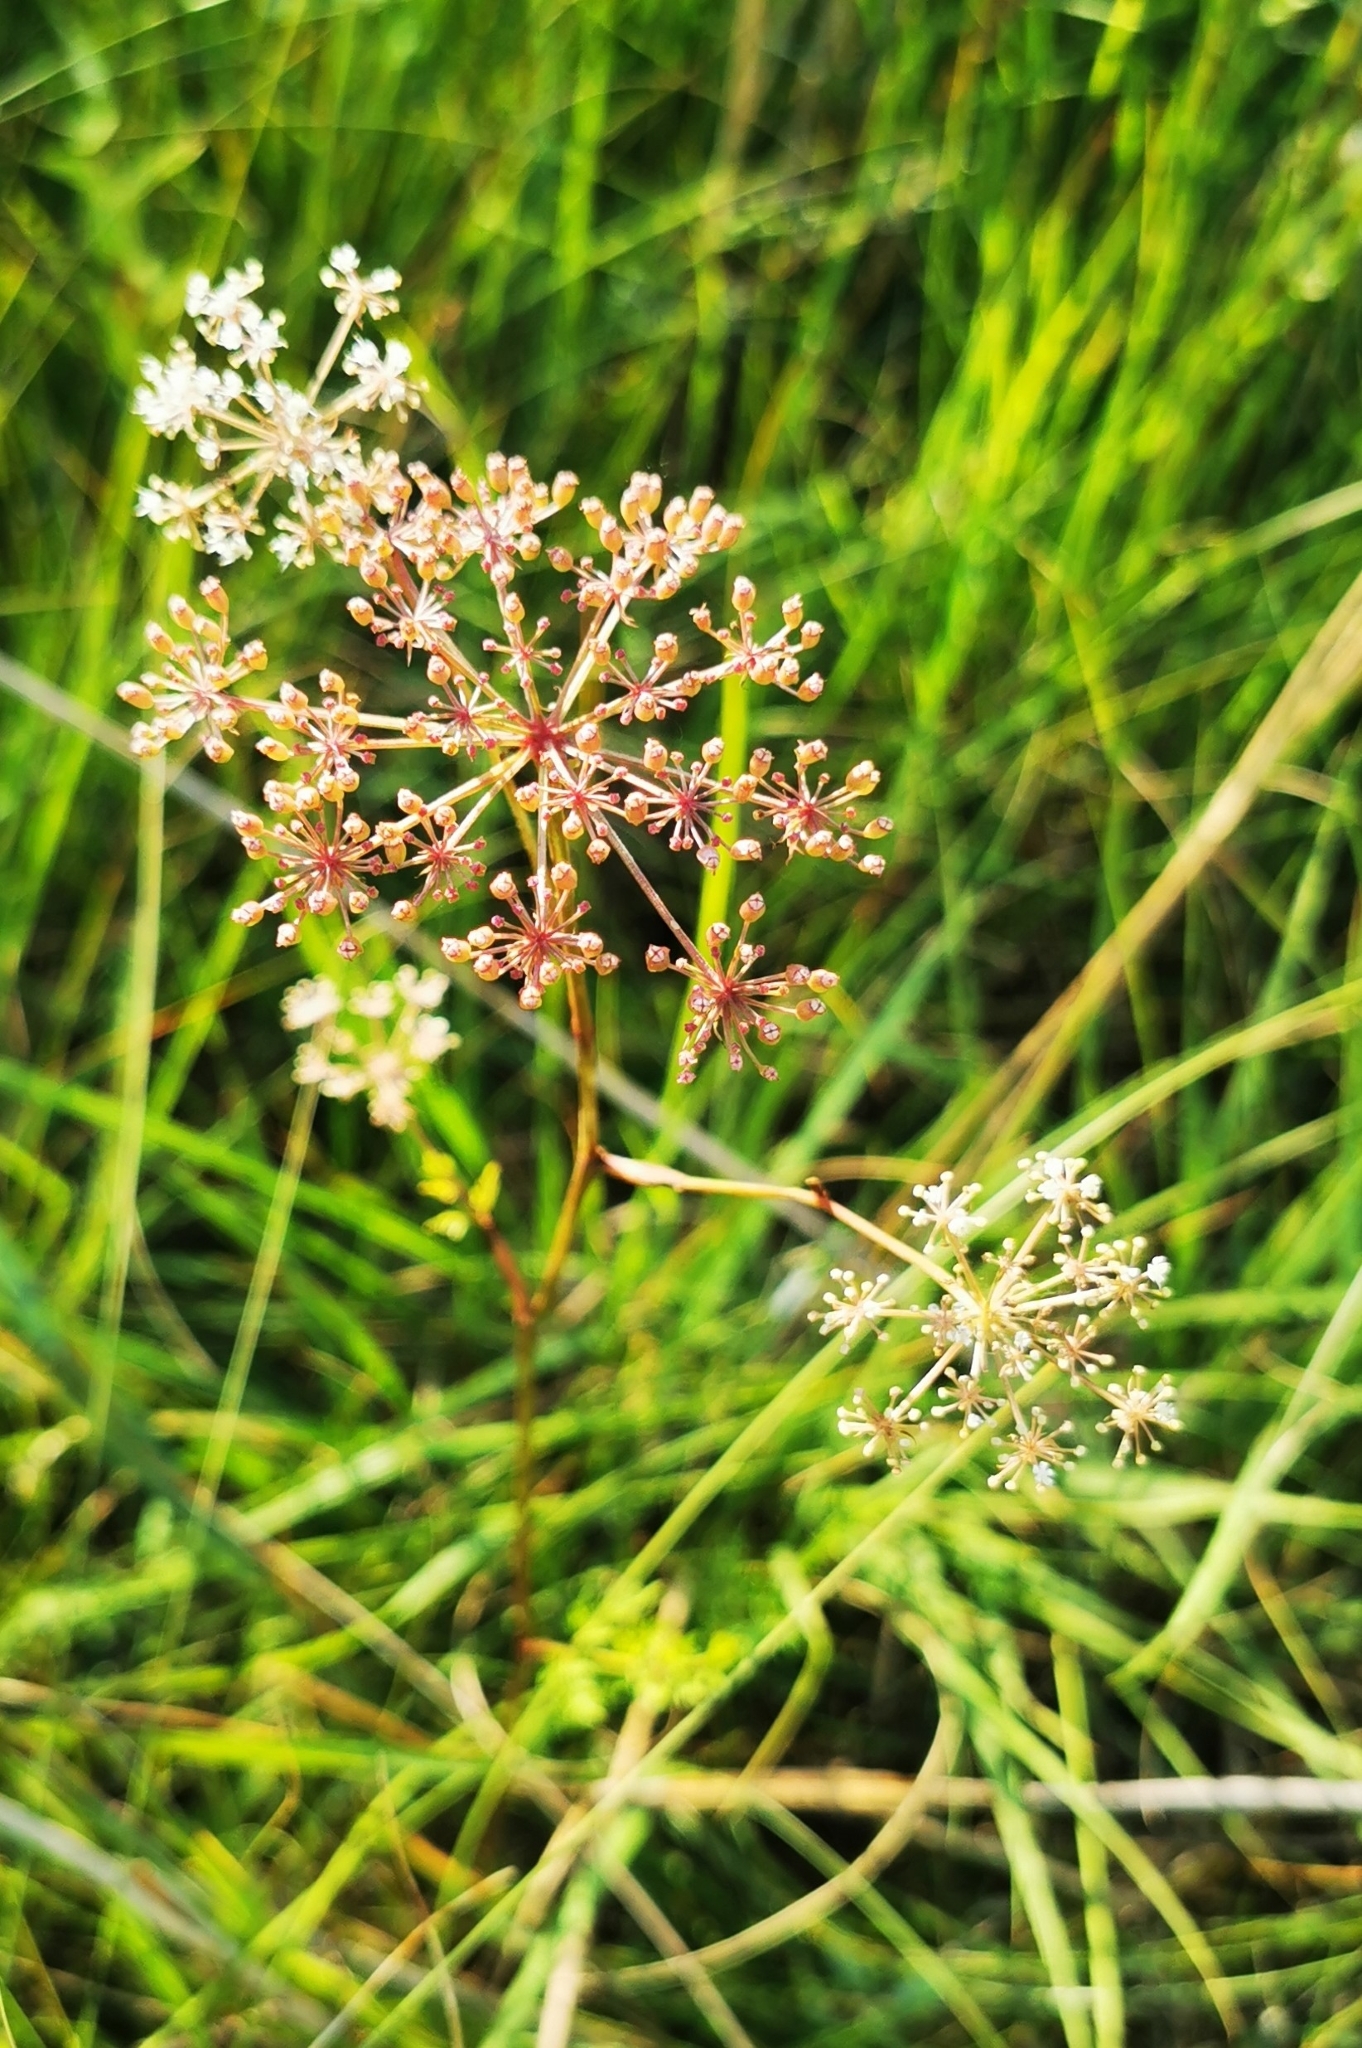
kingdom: Plantae
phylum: Tracheophyta
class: Magnoliopsida
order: Apiales
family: Apiaceae
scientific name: Apiaceae
